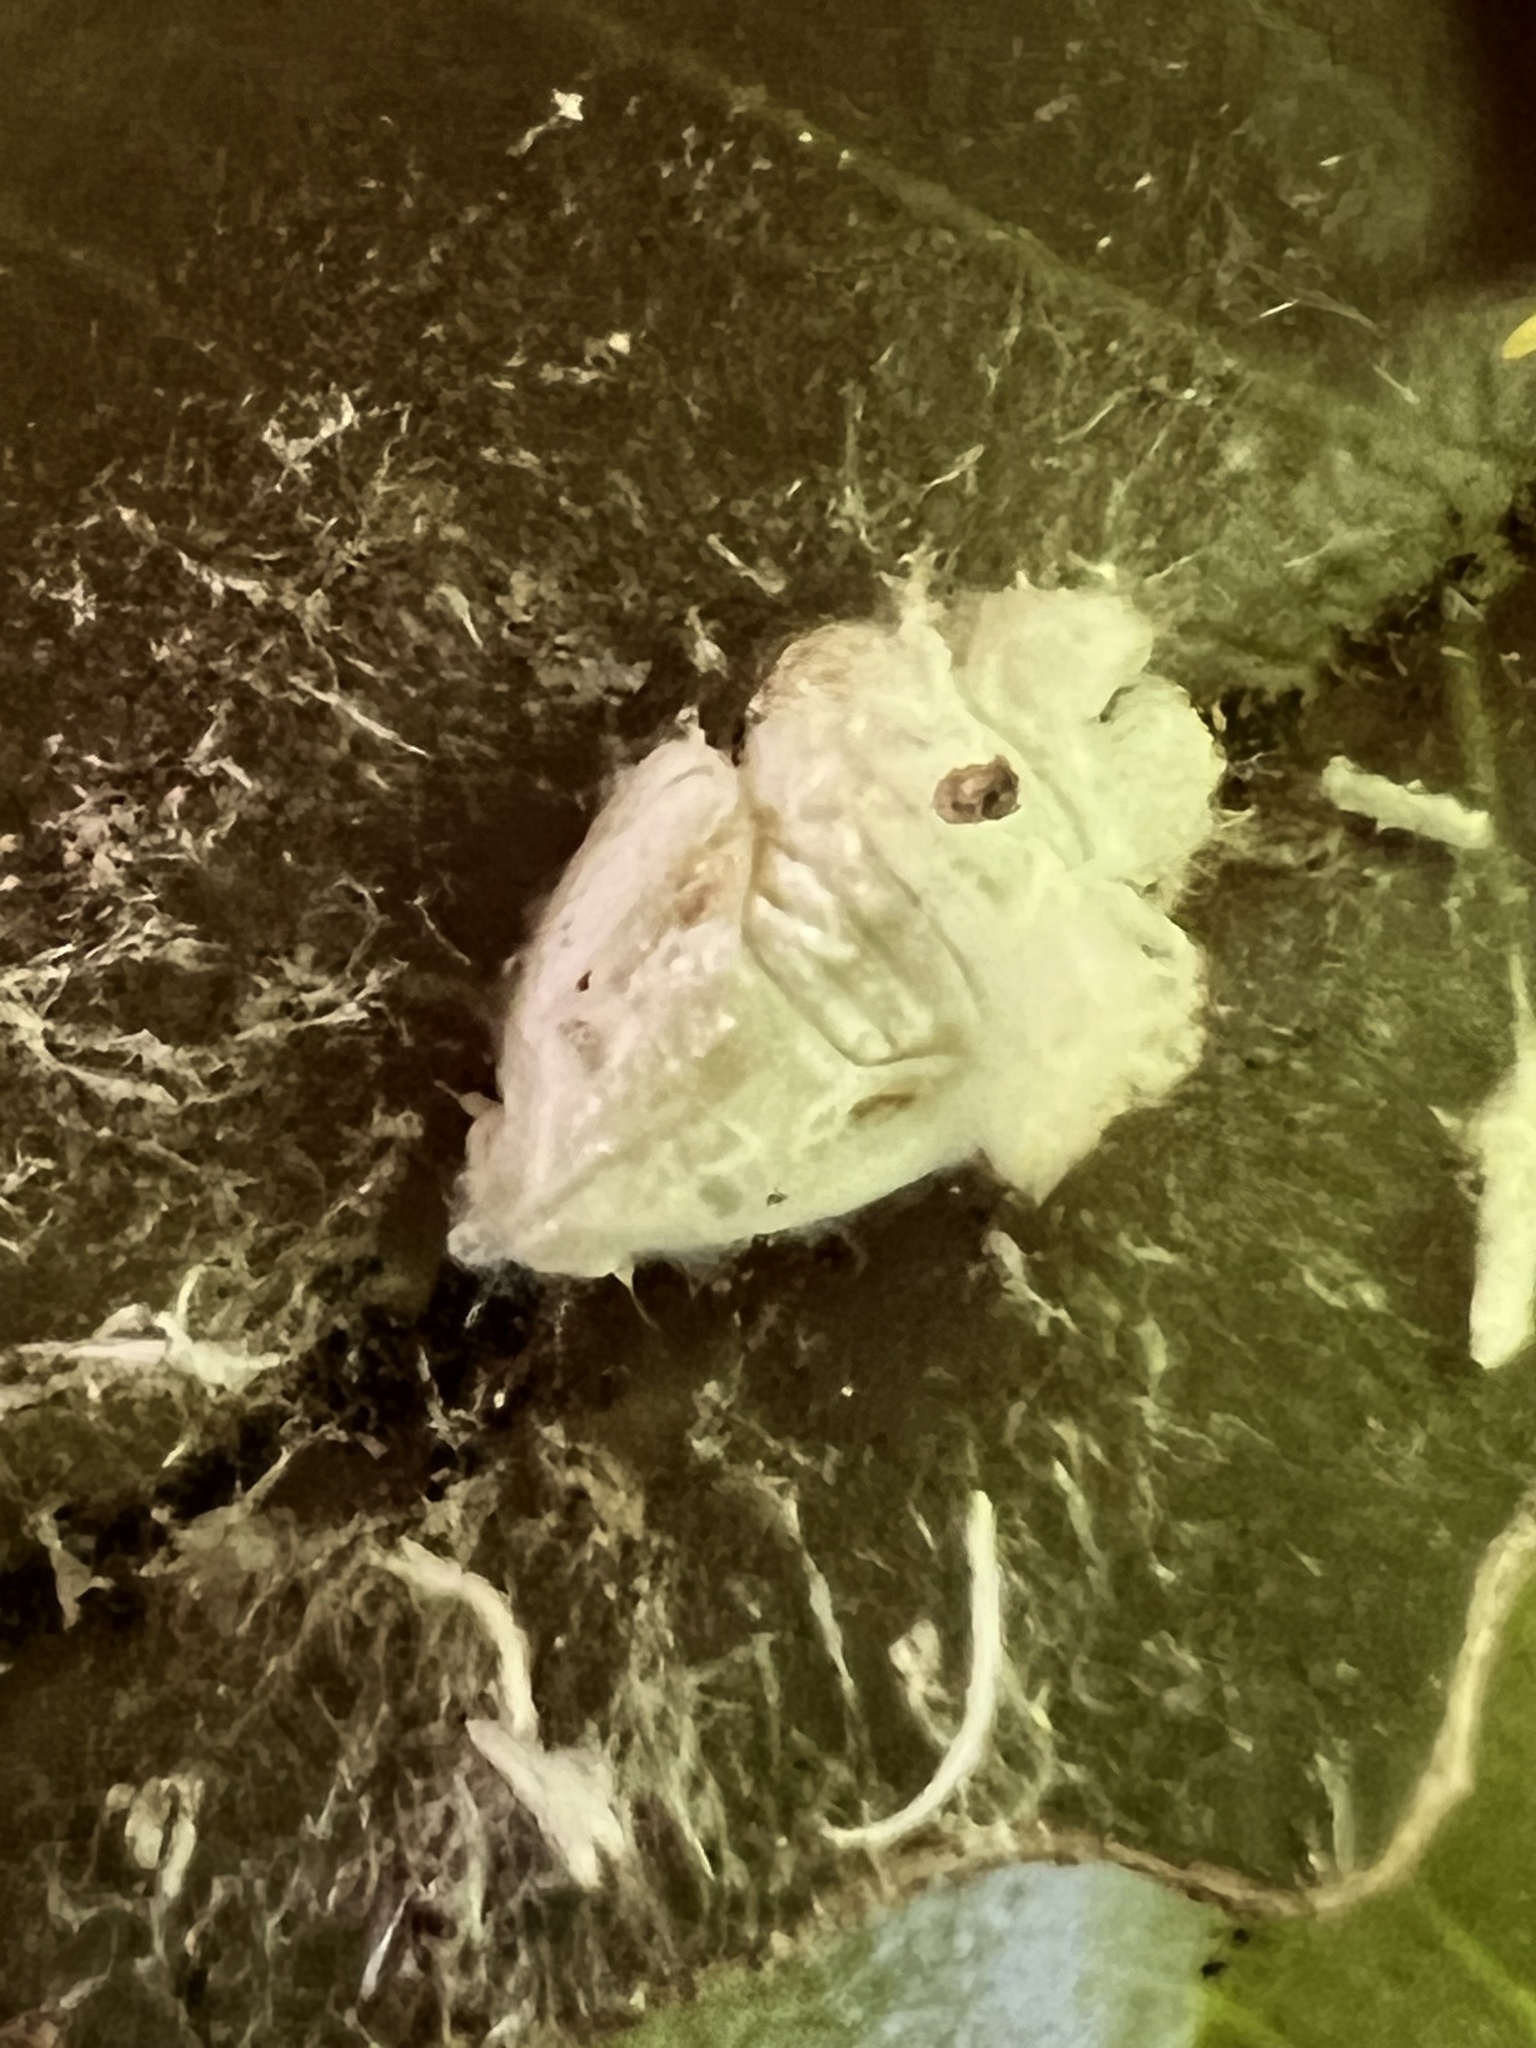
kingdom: Animalia
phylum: Arthropoda
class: Insecta
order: Hemiptera
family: Flatidae
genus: Flatormenis
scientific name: Flatormenis proxima
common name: Northern flatid planthopper
